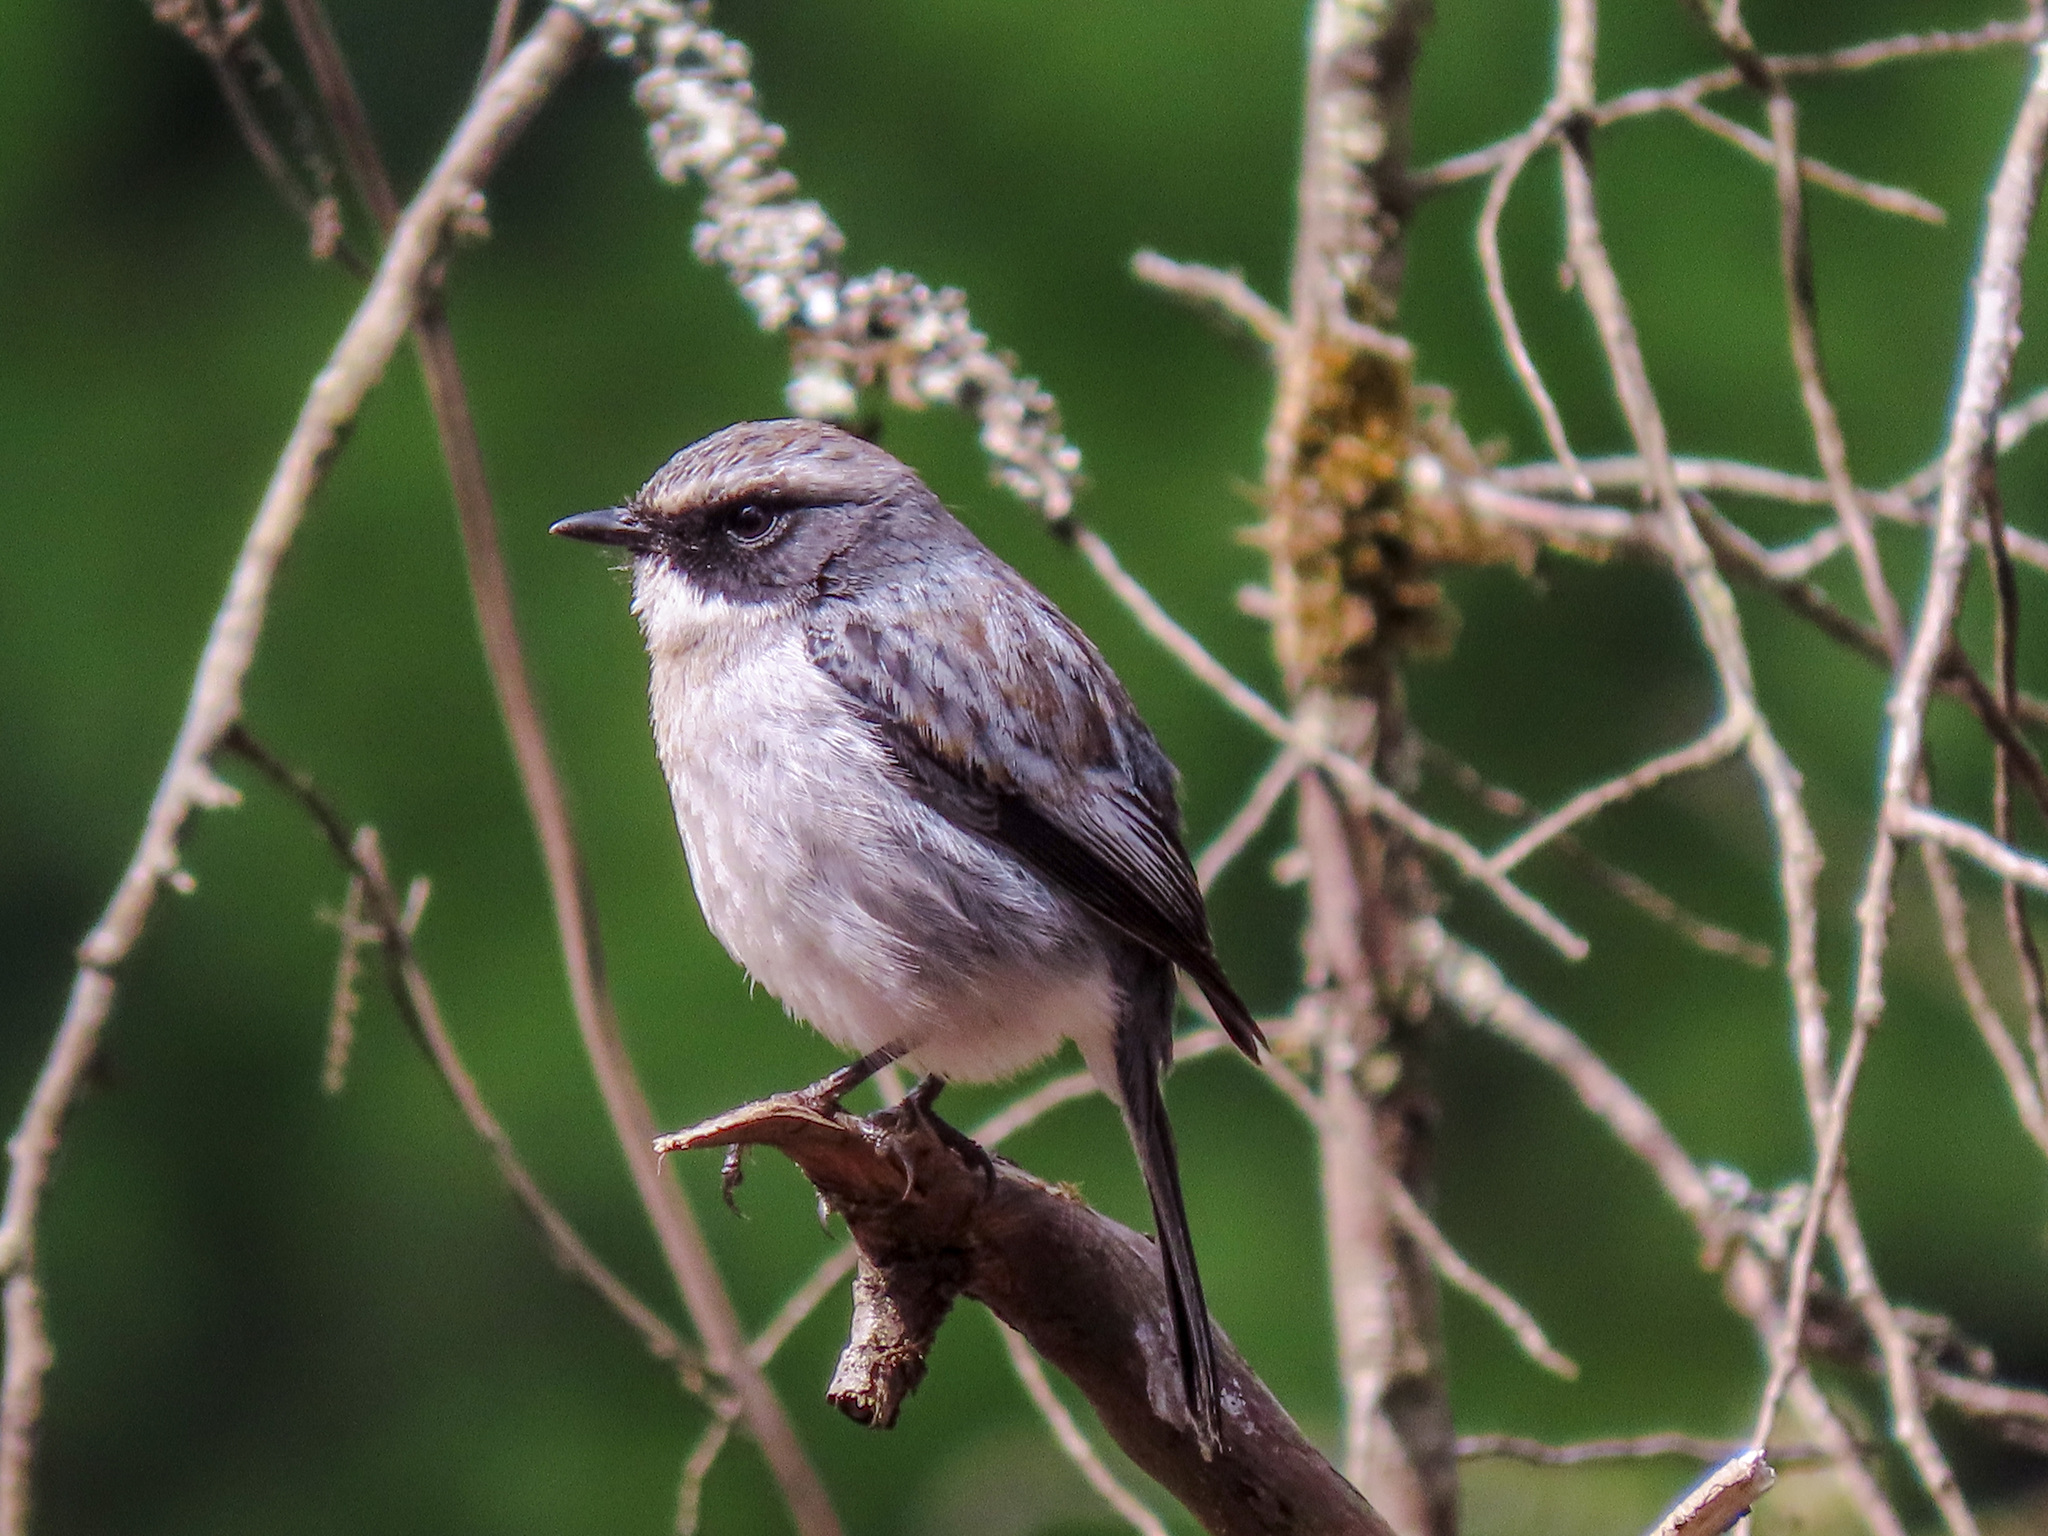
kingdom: Animalia
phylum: Chordata
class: Aves
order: Passeriformes
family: Muscicapidae
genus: Saxicola
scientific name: Saxicola ferreus
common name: Grey bush chat
